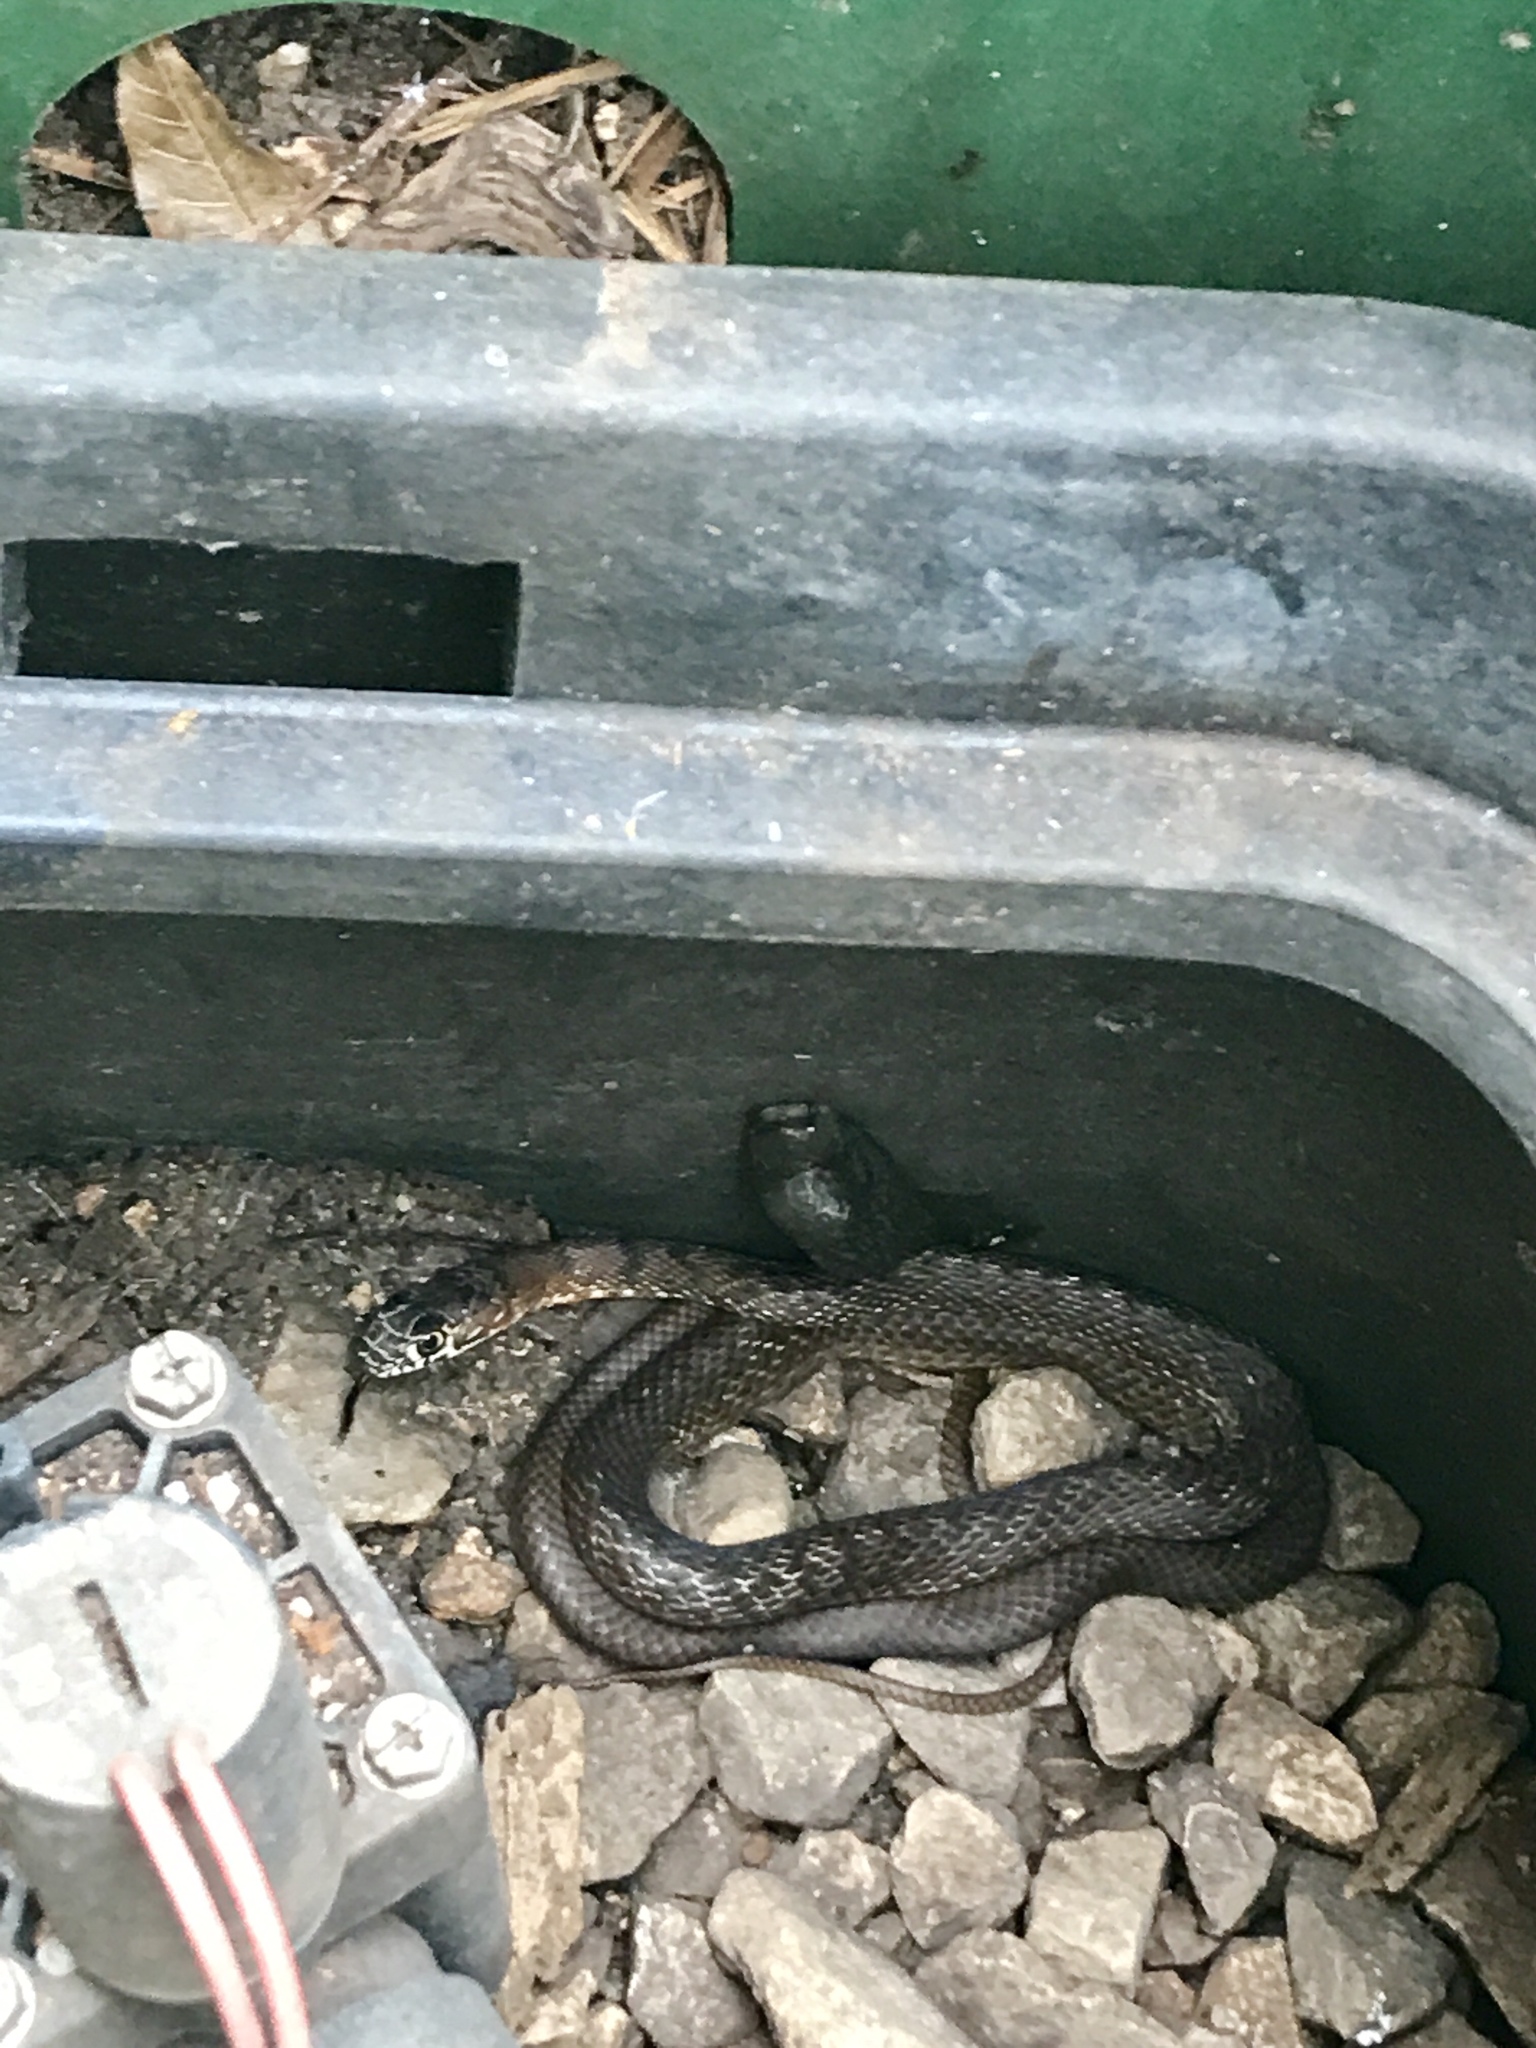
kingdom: Animalia
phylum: Chordata
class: Squamata
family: Colubridae
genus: Masticophis
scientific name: Masticophis flagellum
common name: Coachwhip
